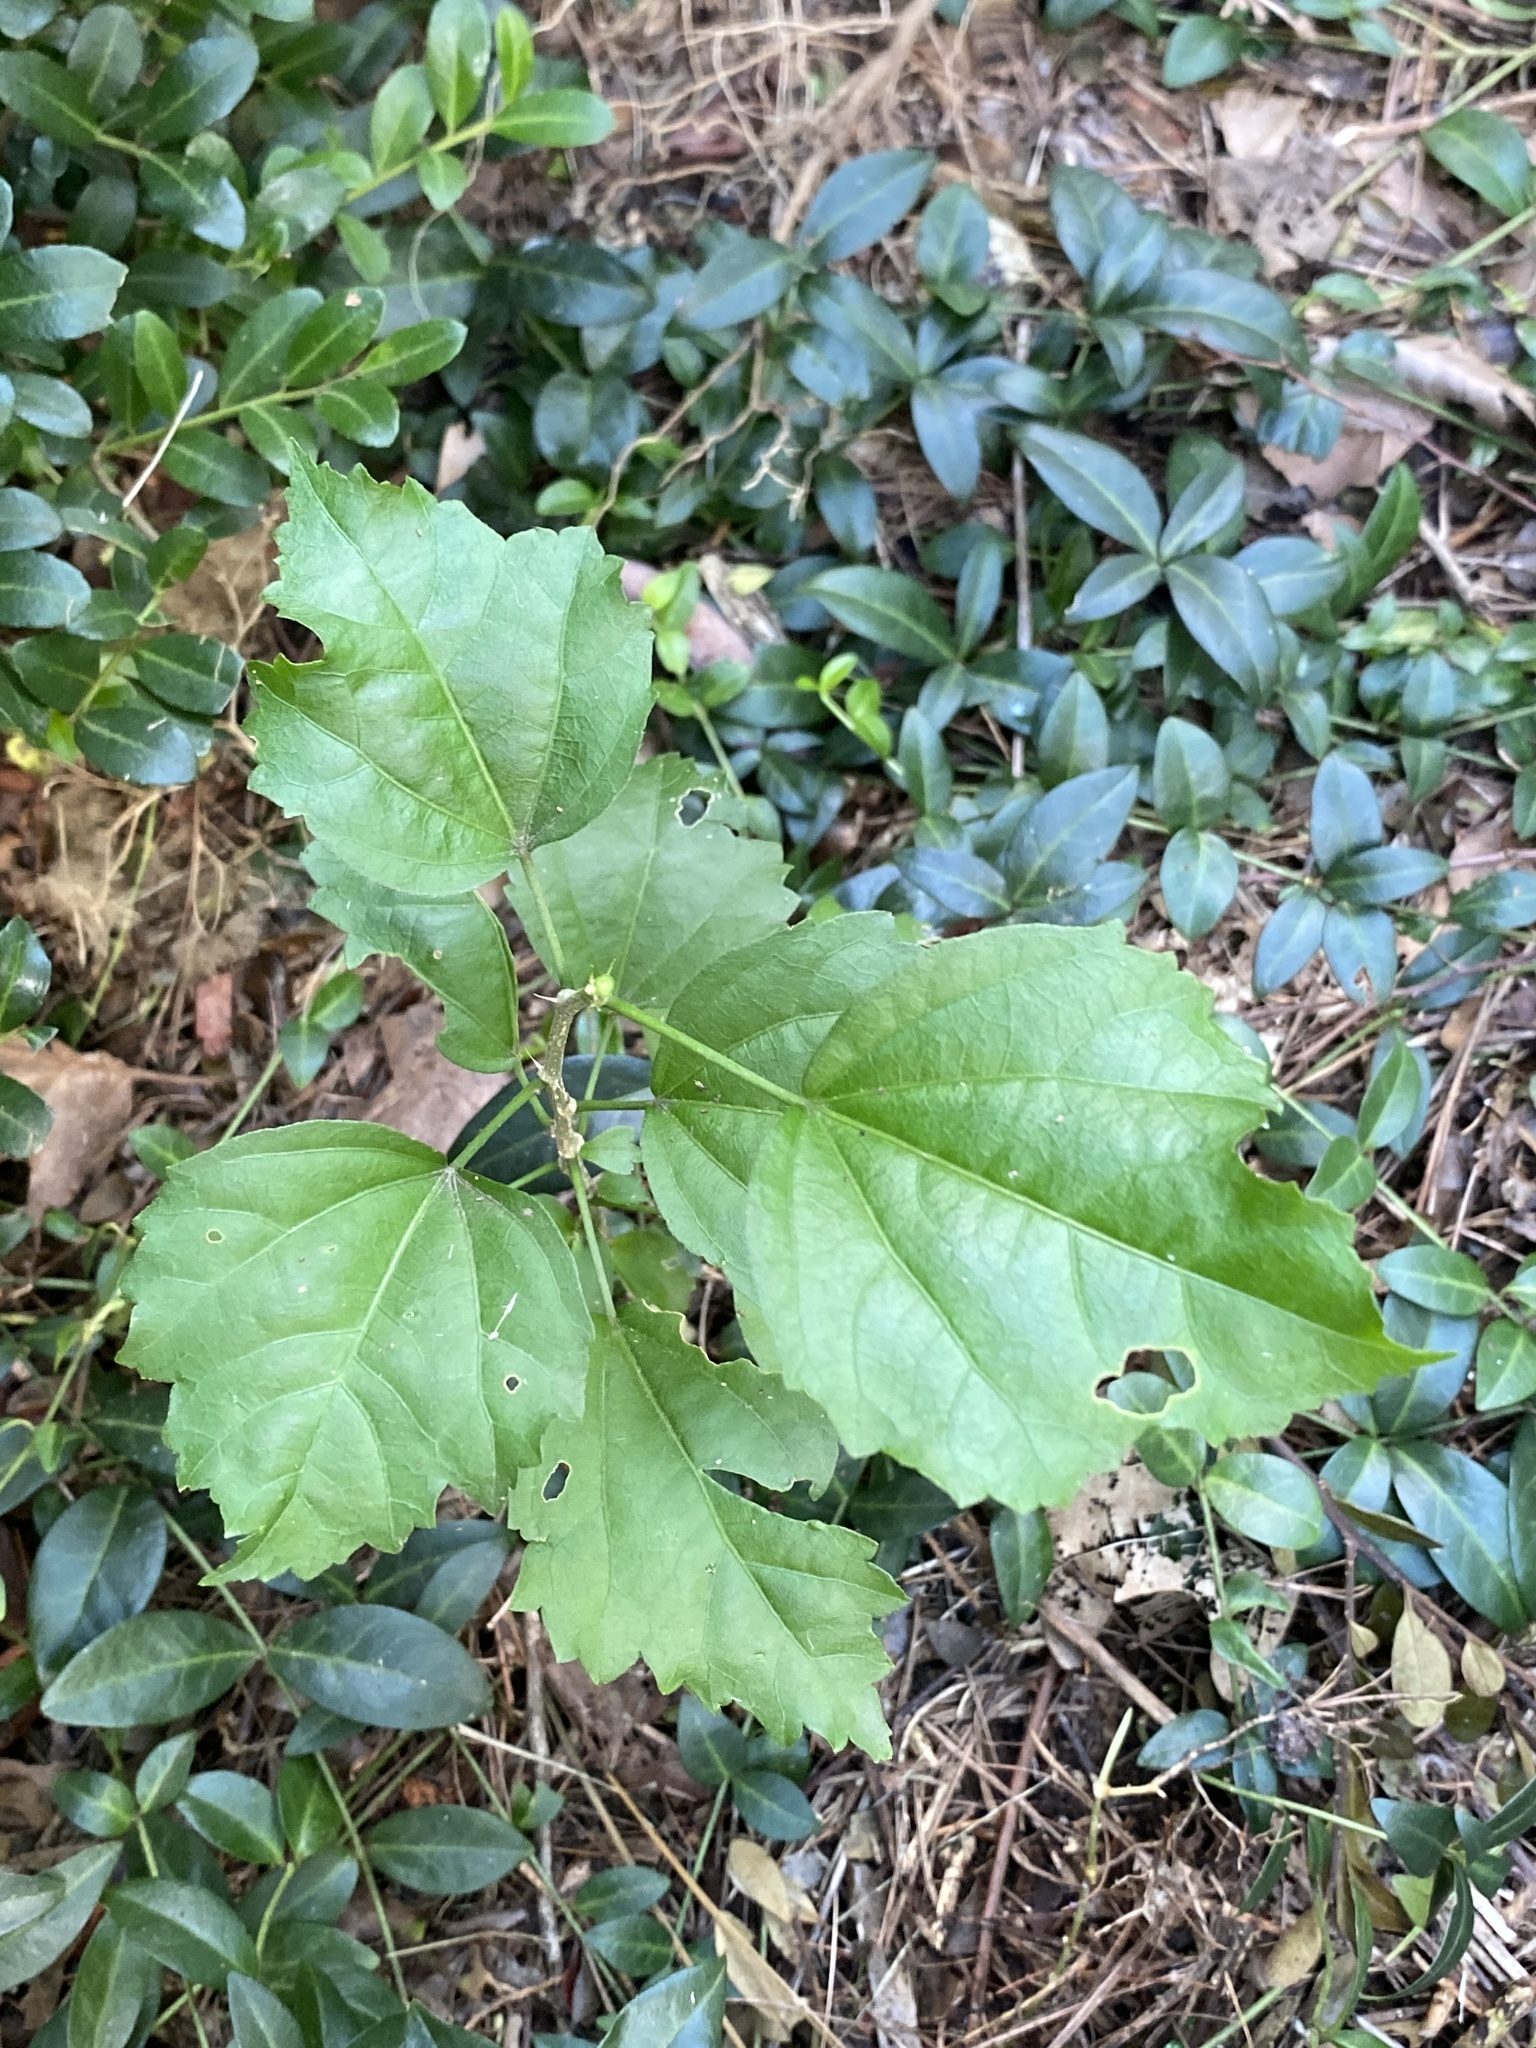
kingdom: Plantae
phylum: Tracheophyta
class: Magnoliopsida
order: Malvales
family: Malvaceae
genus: Hibiscus
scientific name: Hibiscus syriacus
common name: Syrian ketmia
